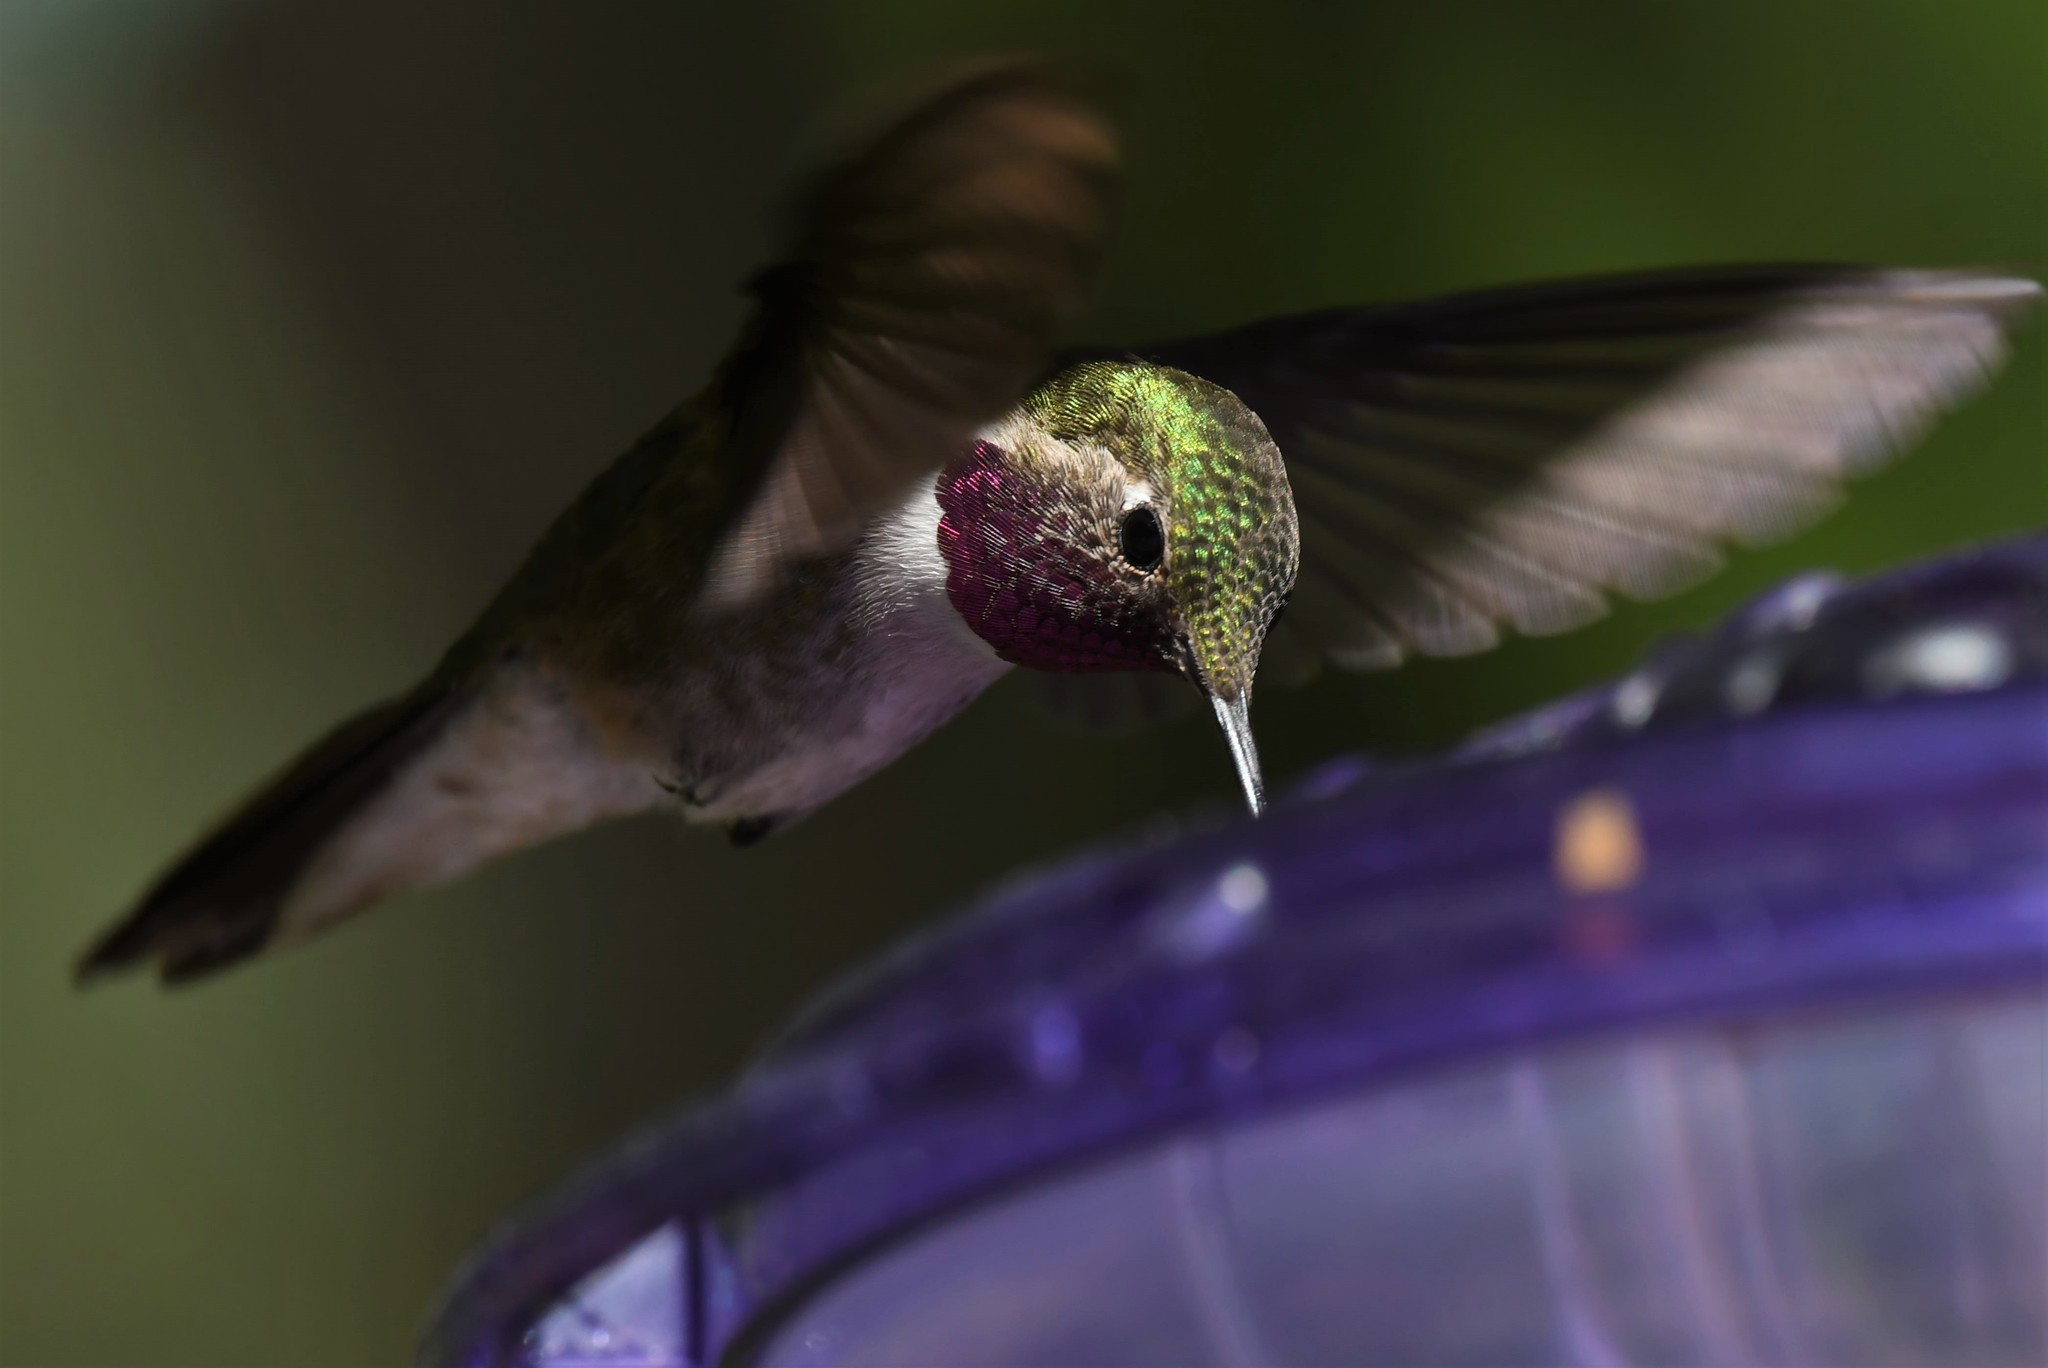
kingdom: Animalia
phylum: Chordata
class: Aves
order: Apodiformes
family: Trochilidae
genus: Selasphorus
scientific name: Selasphorus platycercus
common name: Broad-tailed hummingbird
